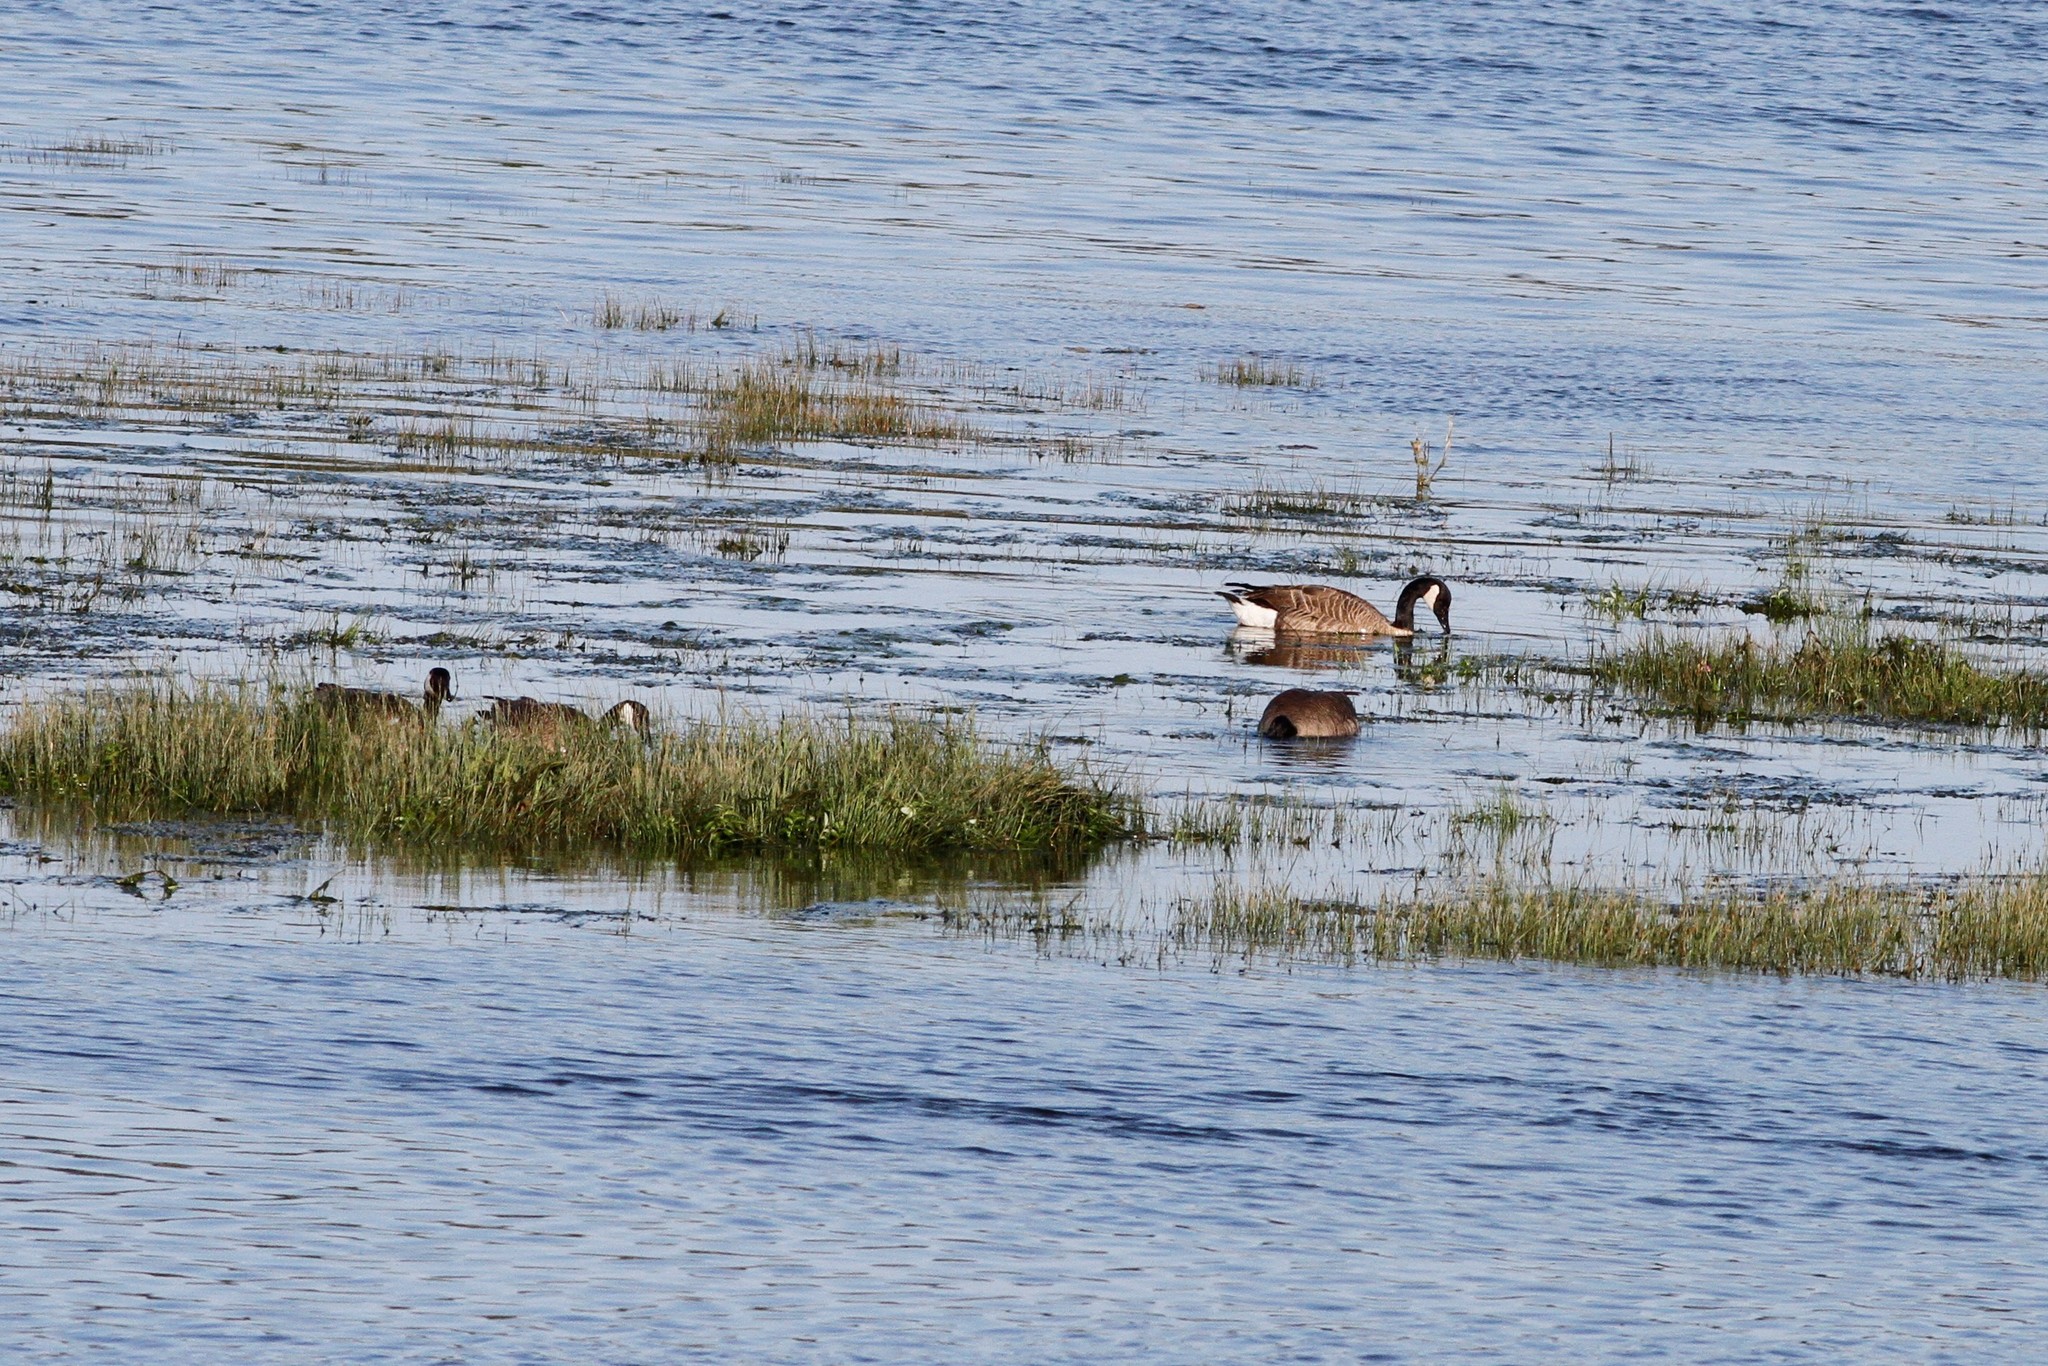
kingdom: Animalia
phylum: Chordata
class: Aves
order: Anseriformes
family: Anatidae
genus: Branta
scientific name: Branta canadensis
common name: Canada goose
